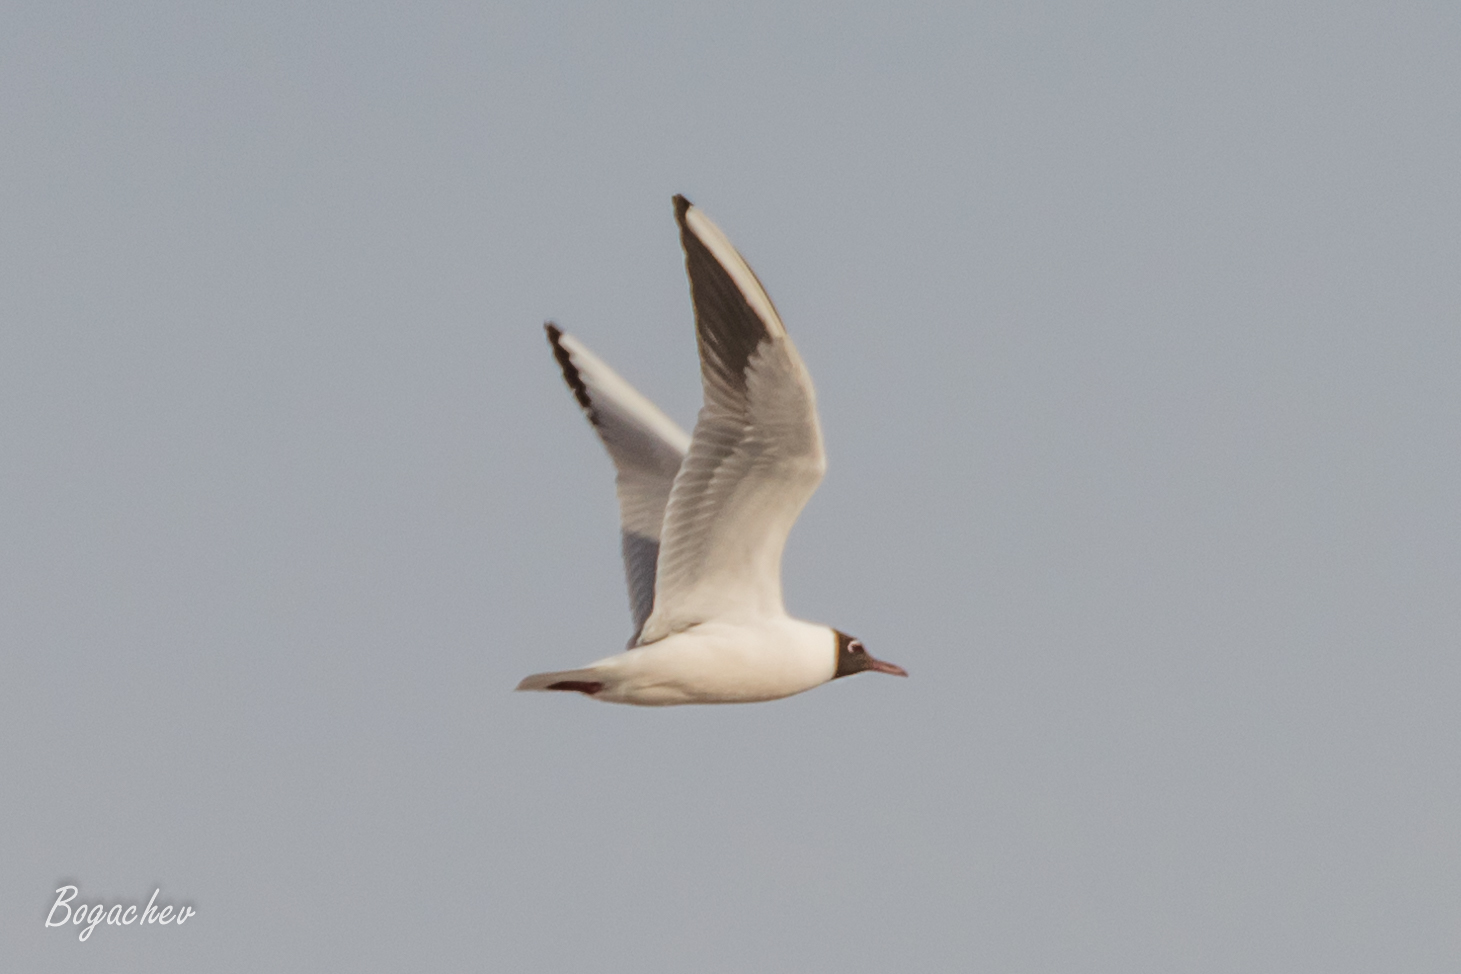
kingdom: Animalia
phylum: Chordata
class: Aves
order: Charadriiformes
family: Laridae
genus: Chroicocephalus
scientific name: Chroicocephalus ridibundus
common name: Black-headed gull
